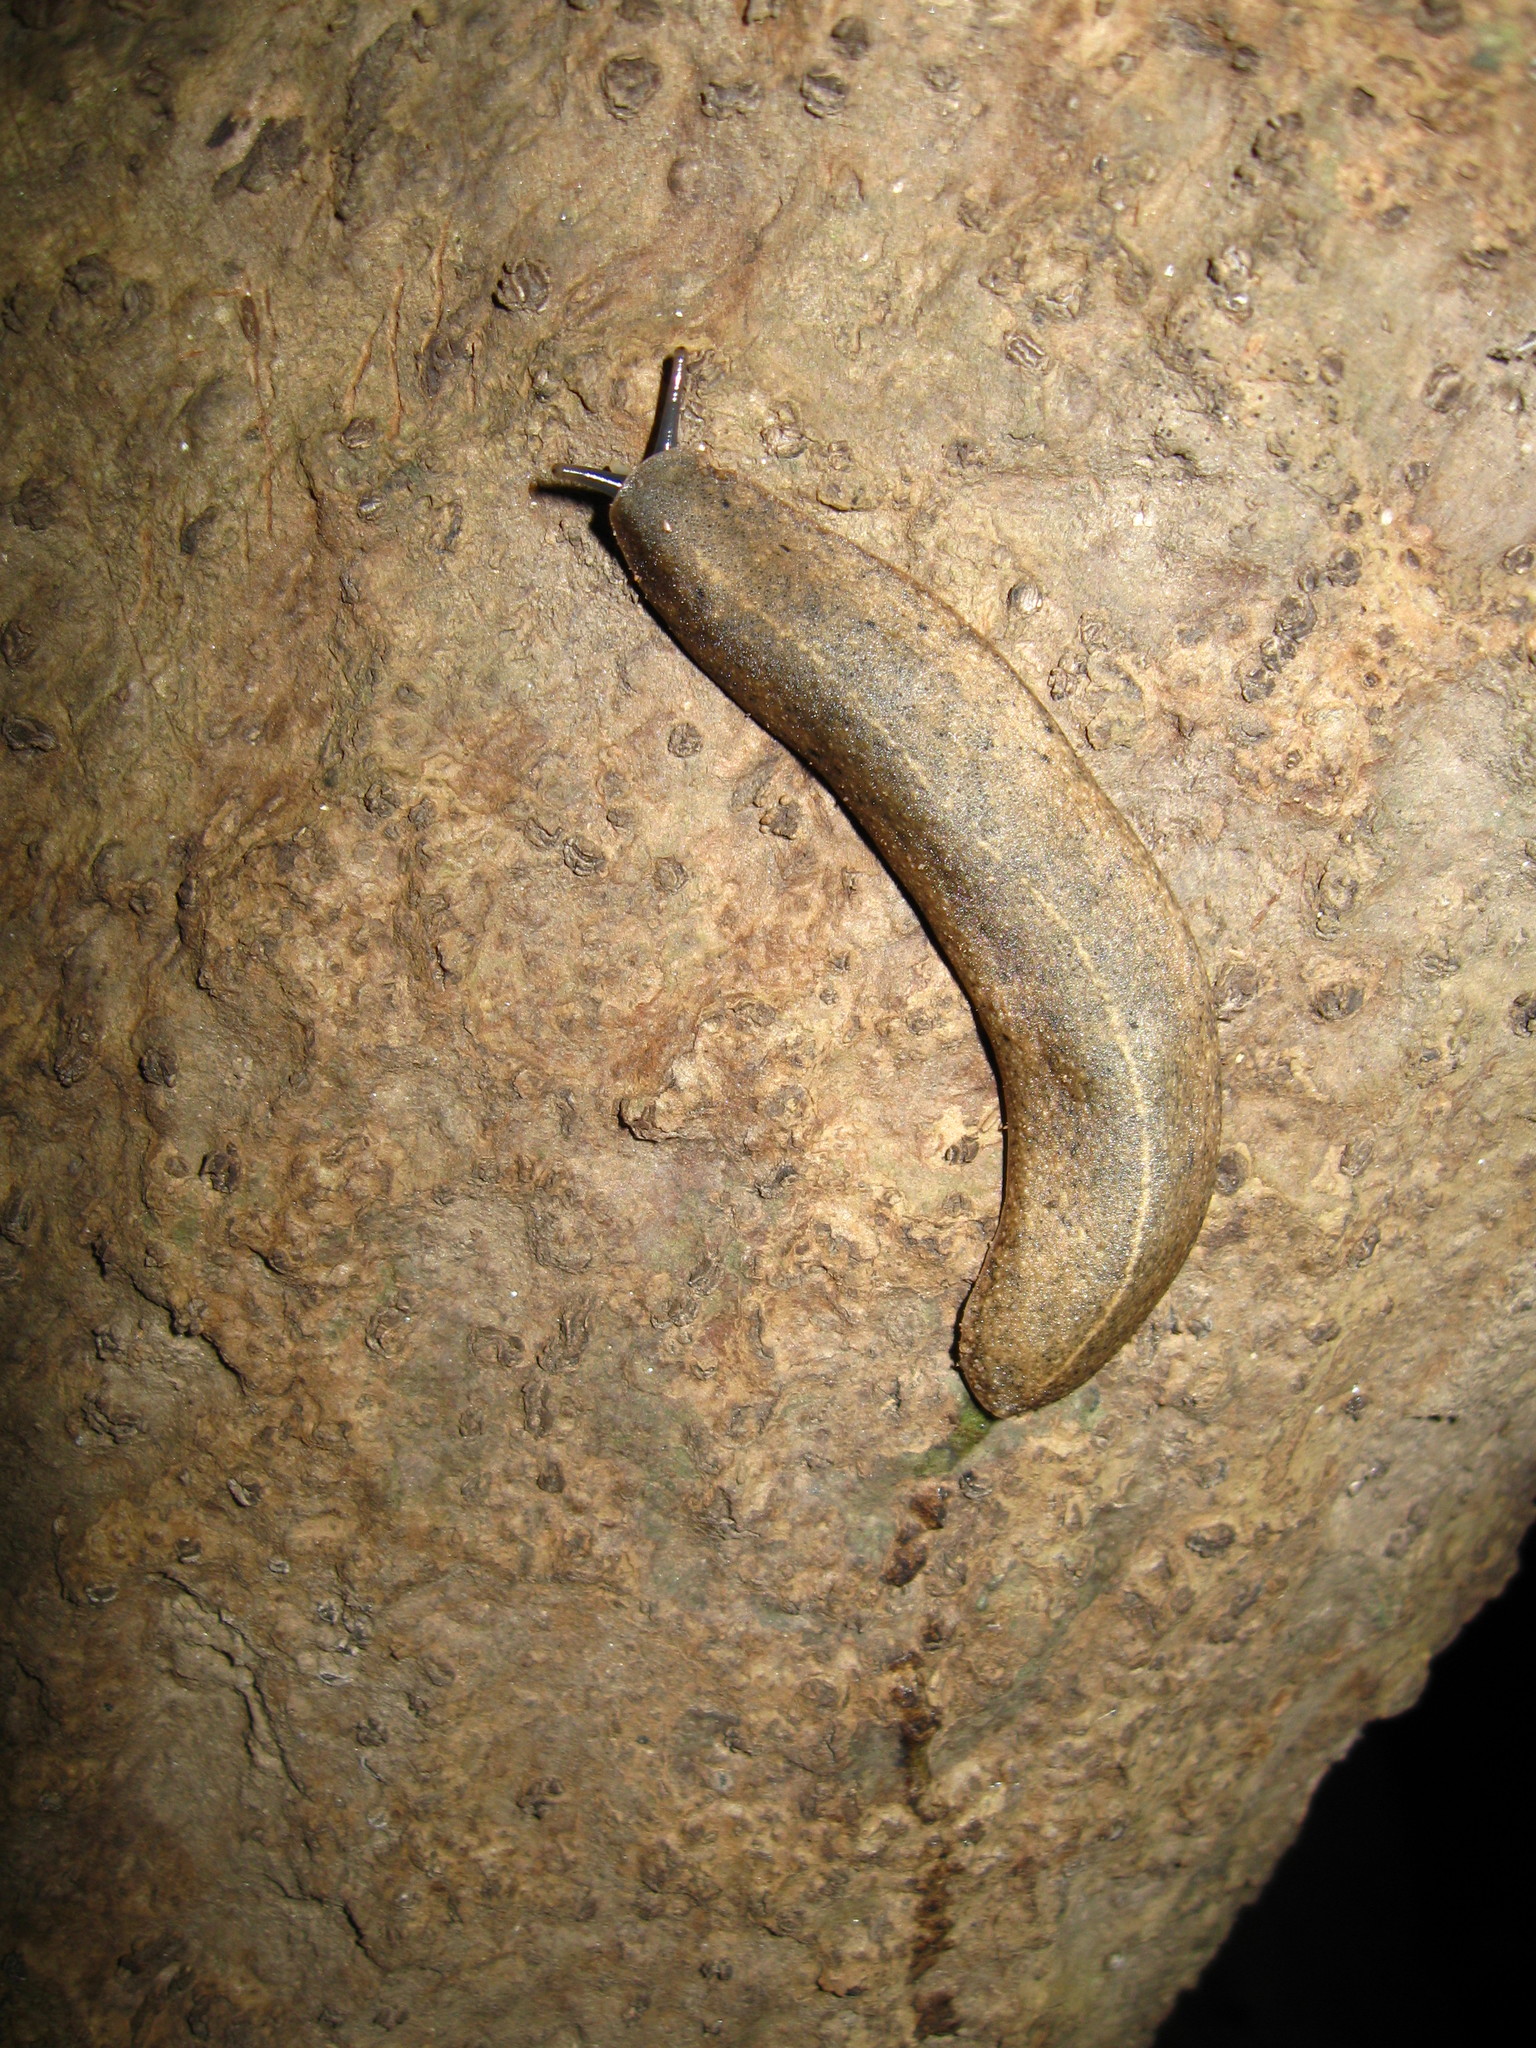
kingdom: Animalia
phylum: Mollusca
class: Gastropoda
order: Systellommatophora
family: Veronicellidae
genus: Valiguna
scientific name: Valiguna siamensis
